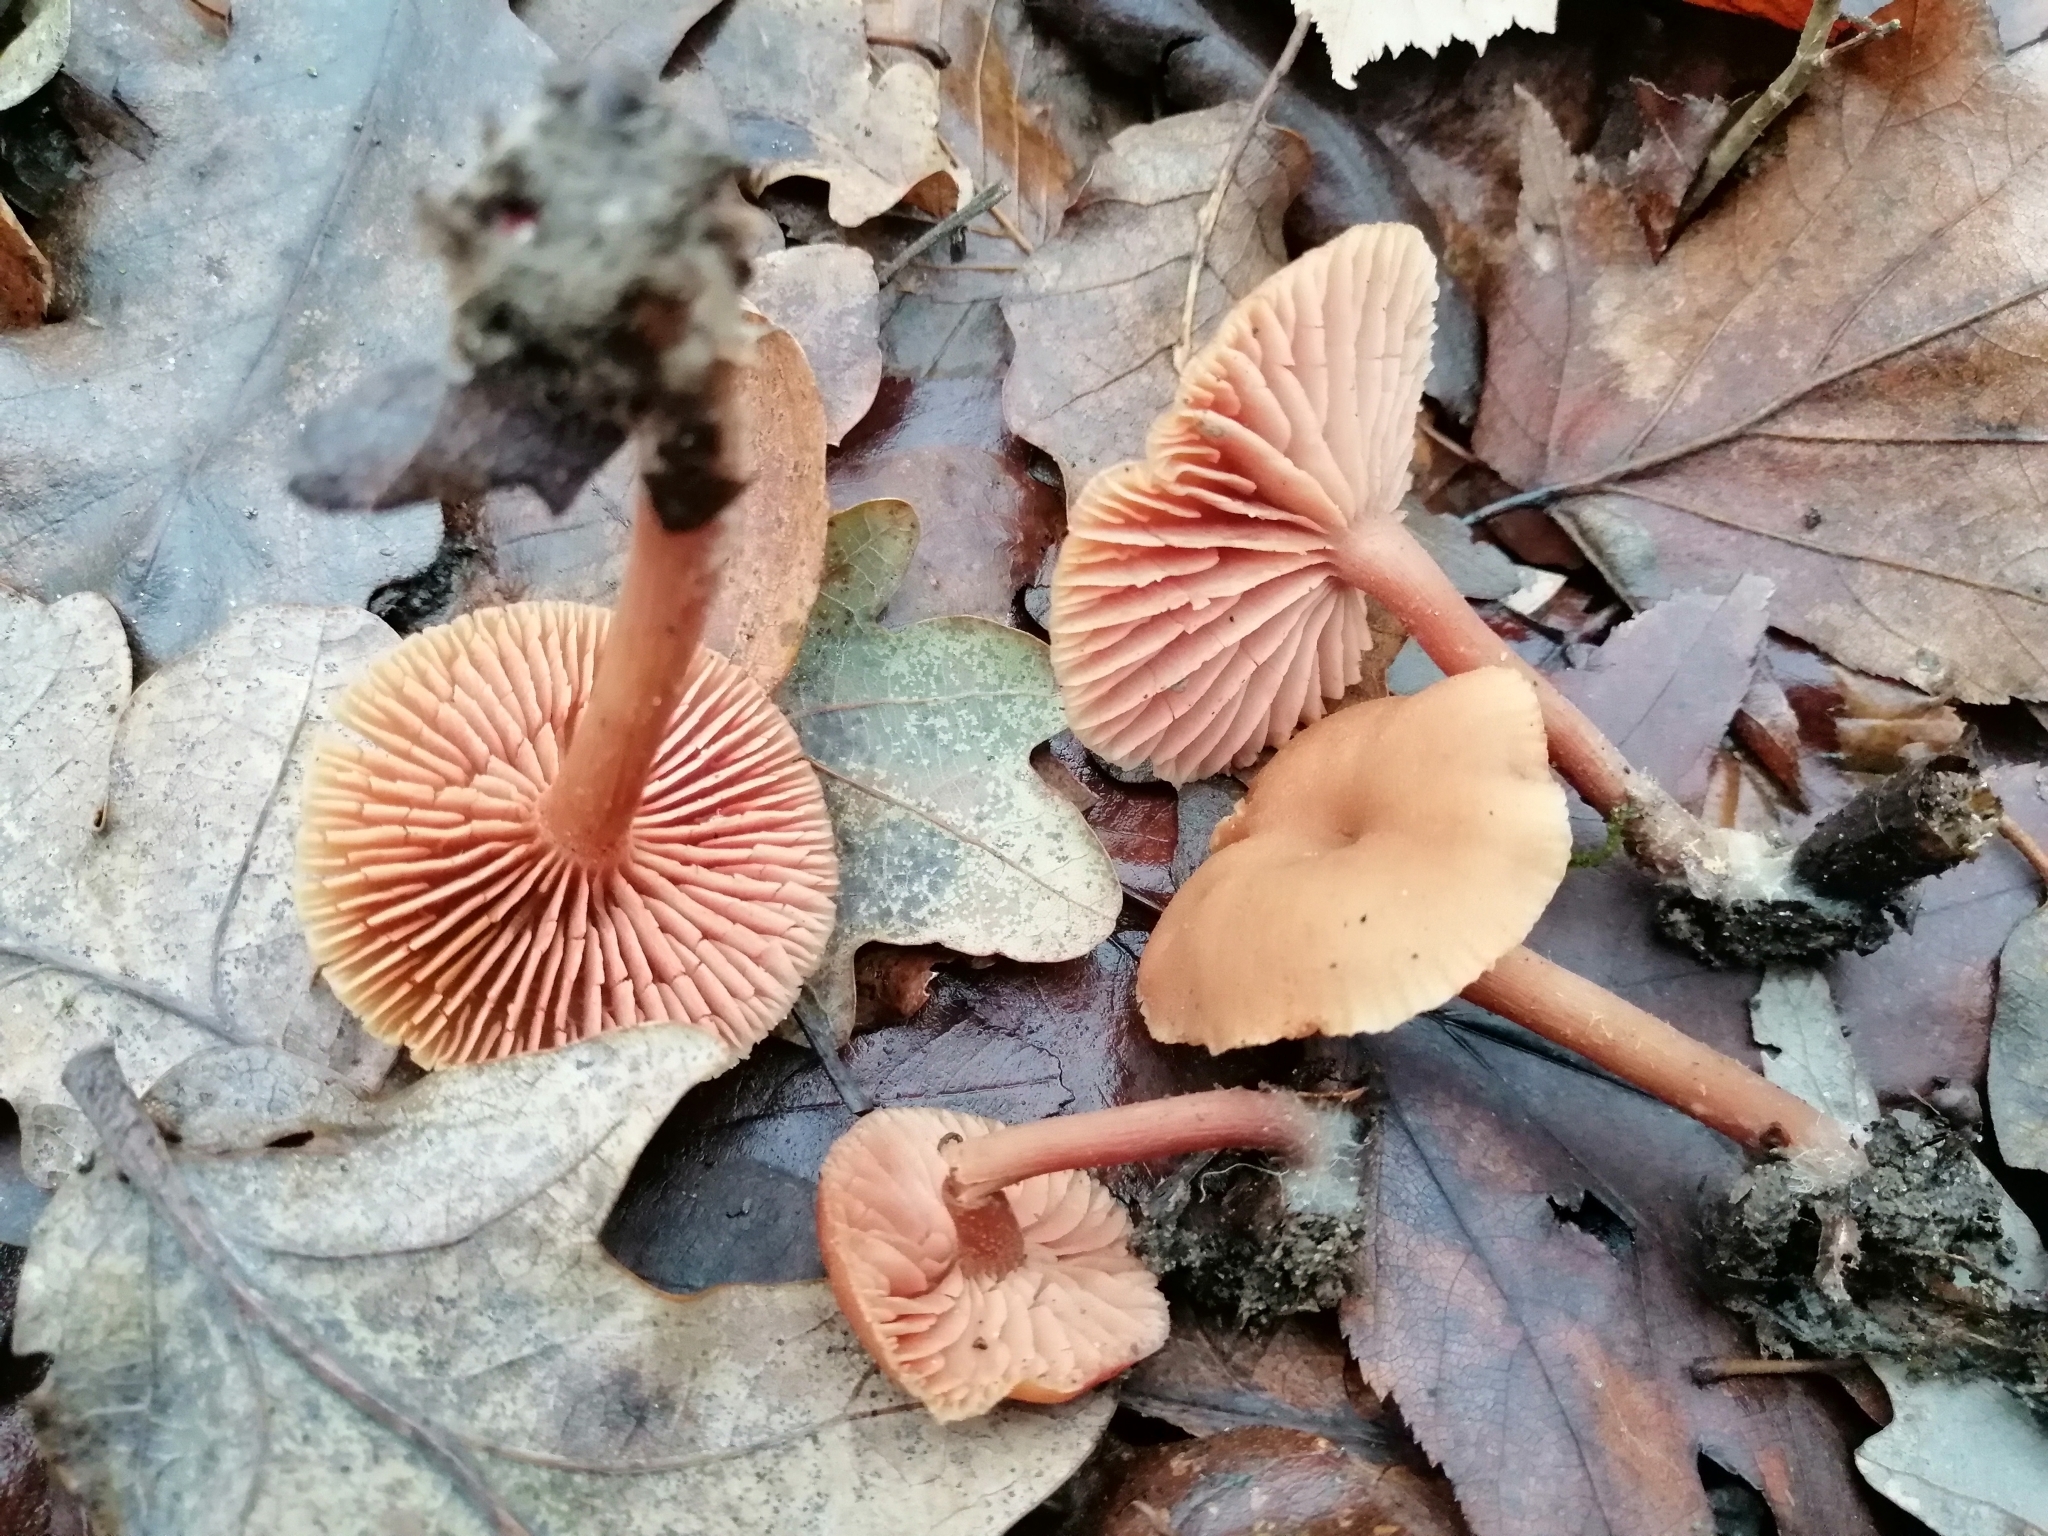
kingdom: Fungi
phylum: Basidiomycota
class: Agaricomycetes
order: Agaricales
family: Hydnangiaceae
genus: Laccaria
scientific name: Laccaria laccata
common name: Deceiver
